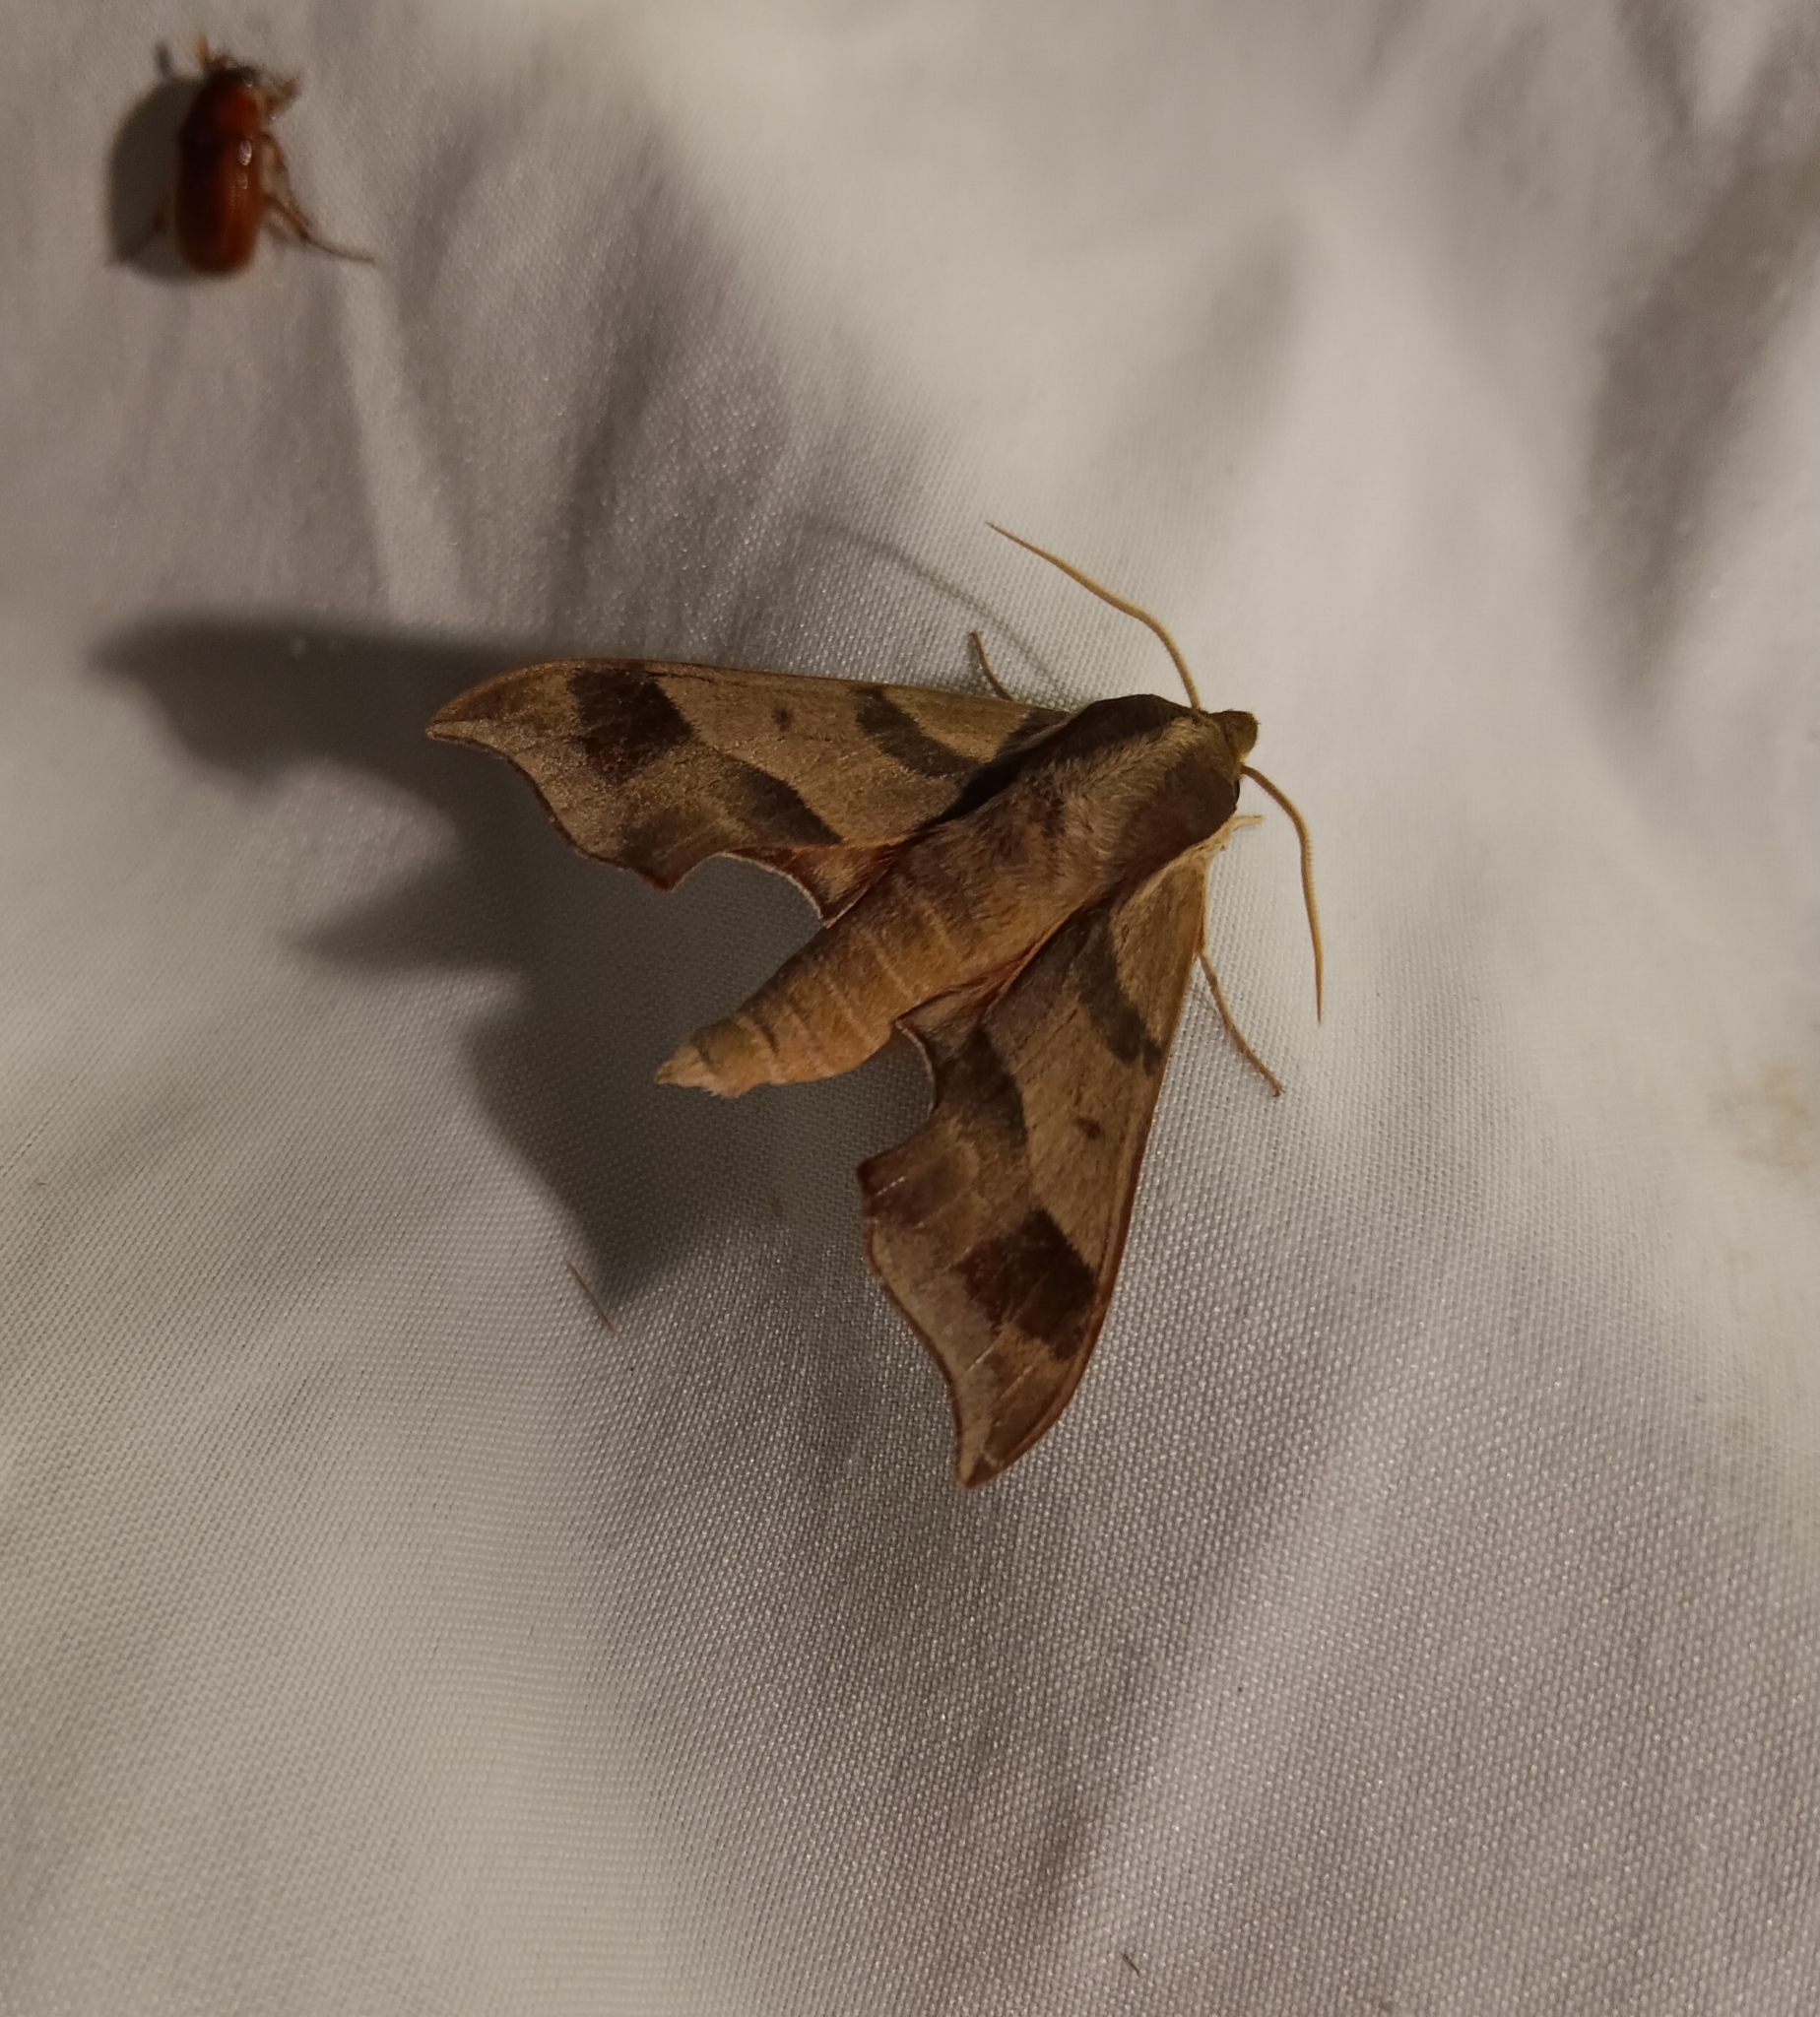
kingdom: Animalia
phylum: Arthropoda
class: Insecta
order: Lepidoptera
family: Sphingidae
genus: Darapsa
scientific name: Darapsa myron
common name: Hog sphinx
